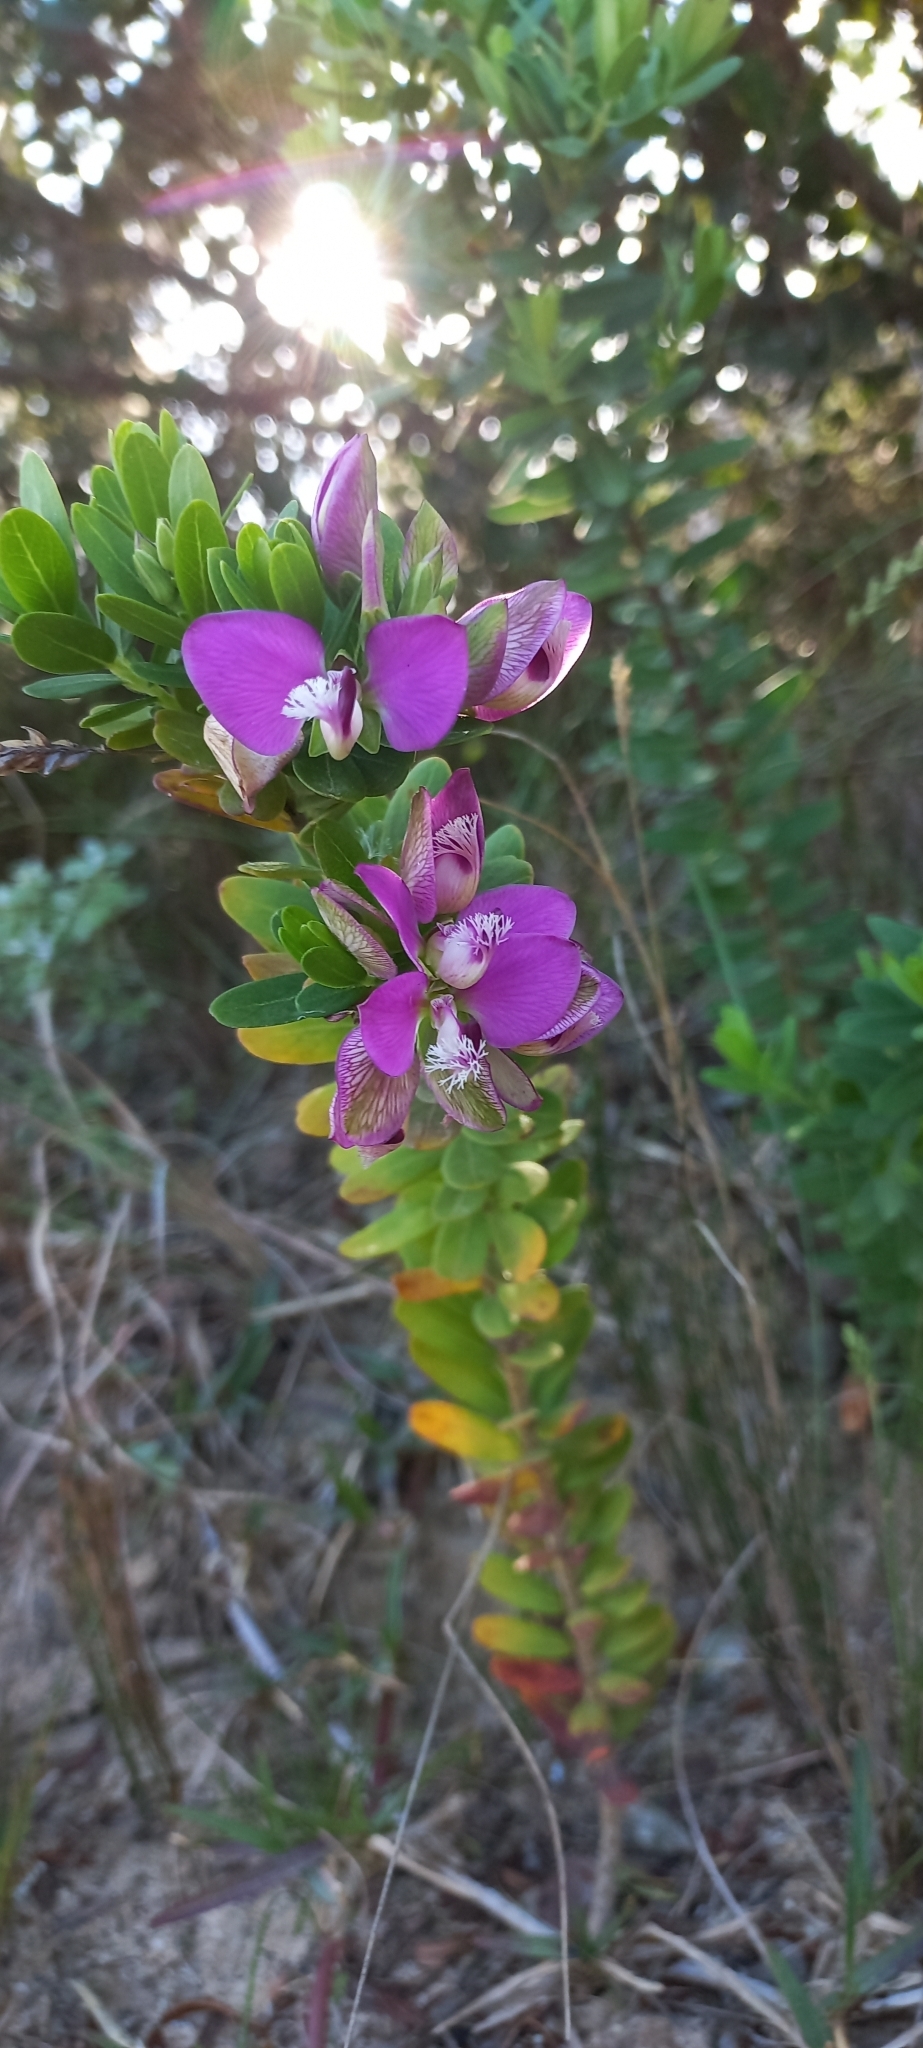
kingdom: Plantae
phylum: Tracheophyta
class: Magnoliopsida
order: Fabales
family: Polygalaceae
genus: Polygala
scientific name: Polygala myrtifolia
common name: Myrtle-leaf milkwort
